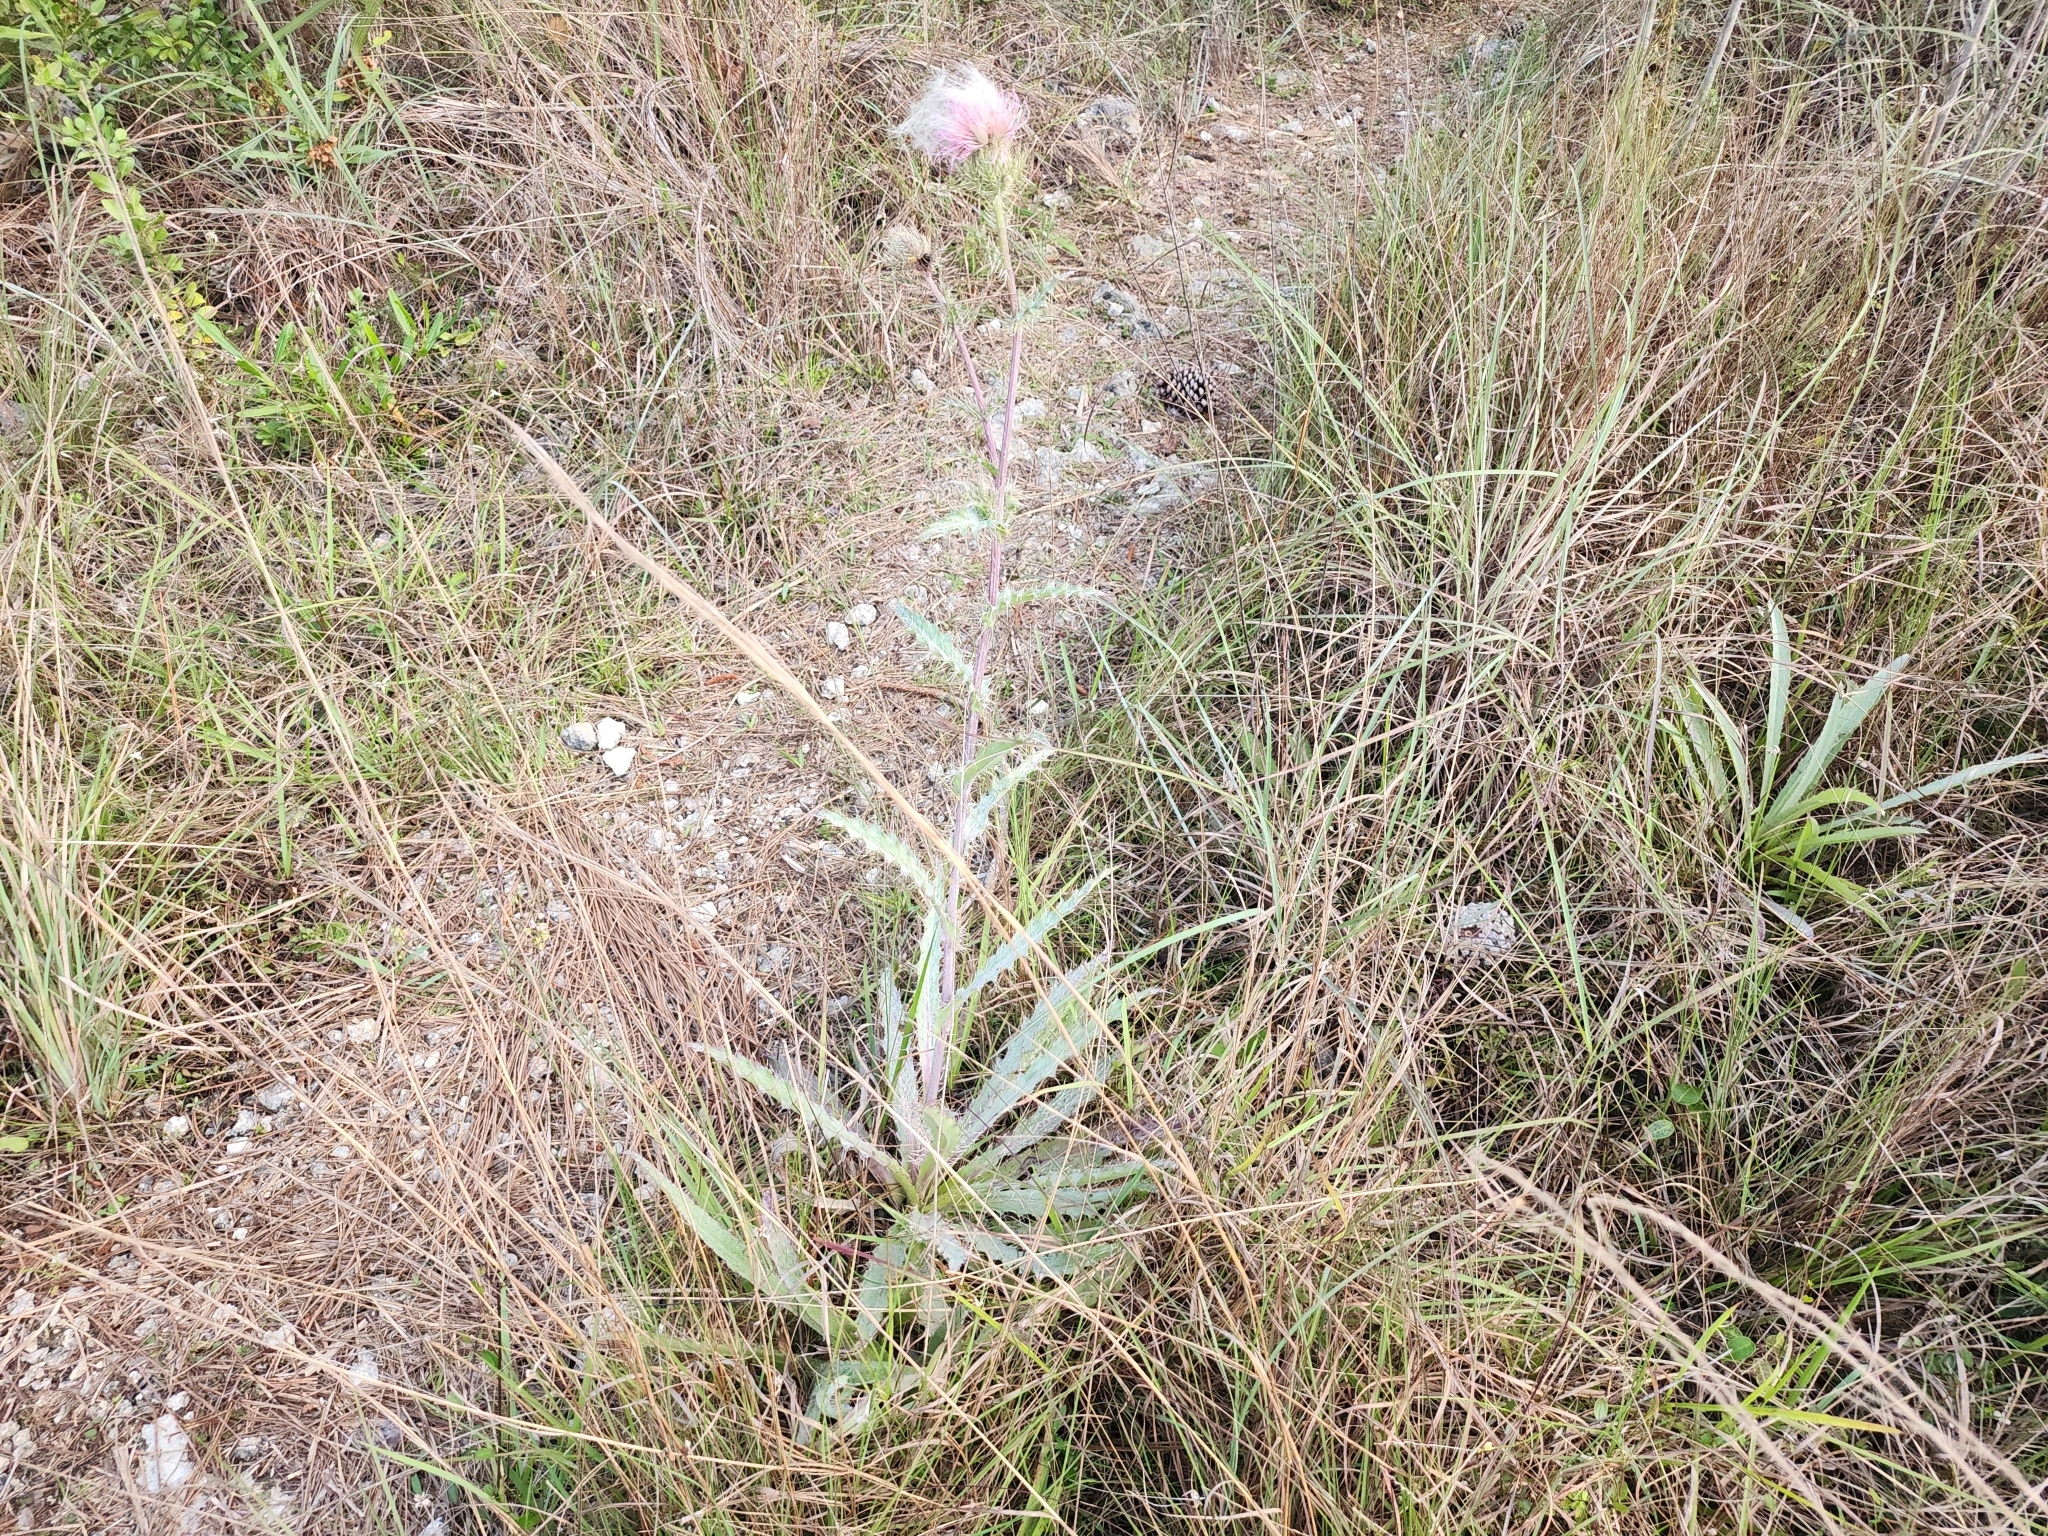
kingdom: Plantae
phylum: Tracheophyta
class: Magnoliopsida
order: Asterales
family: Asteraceae
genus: Cirsium
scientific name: Cirsium horridulum
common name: Bristly thistle
